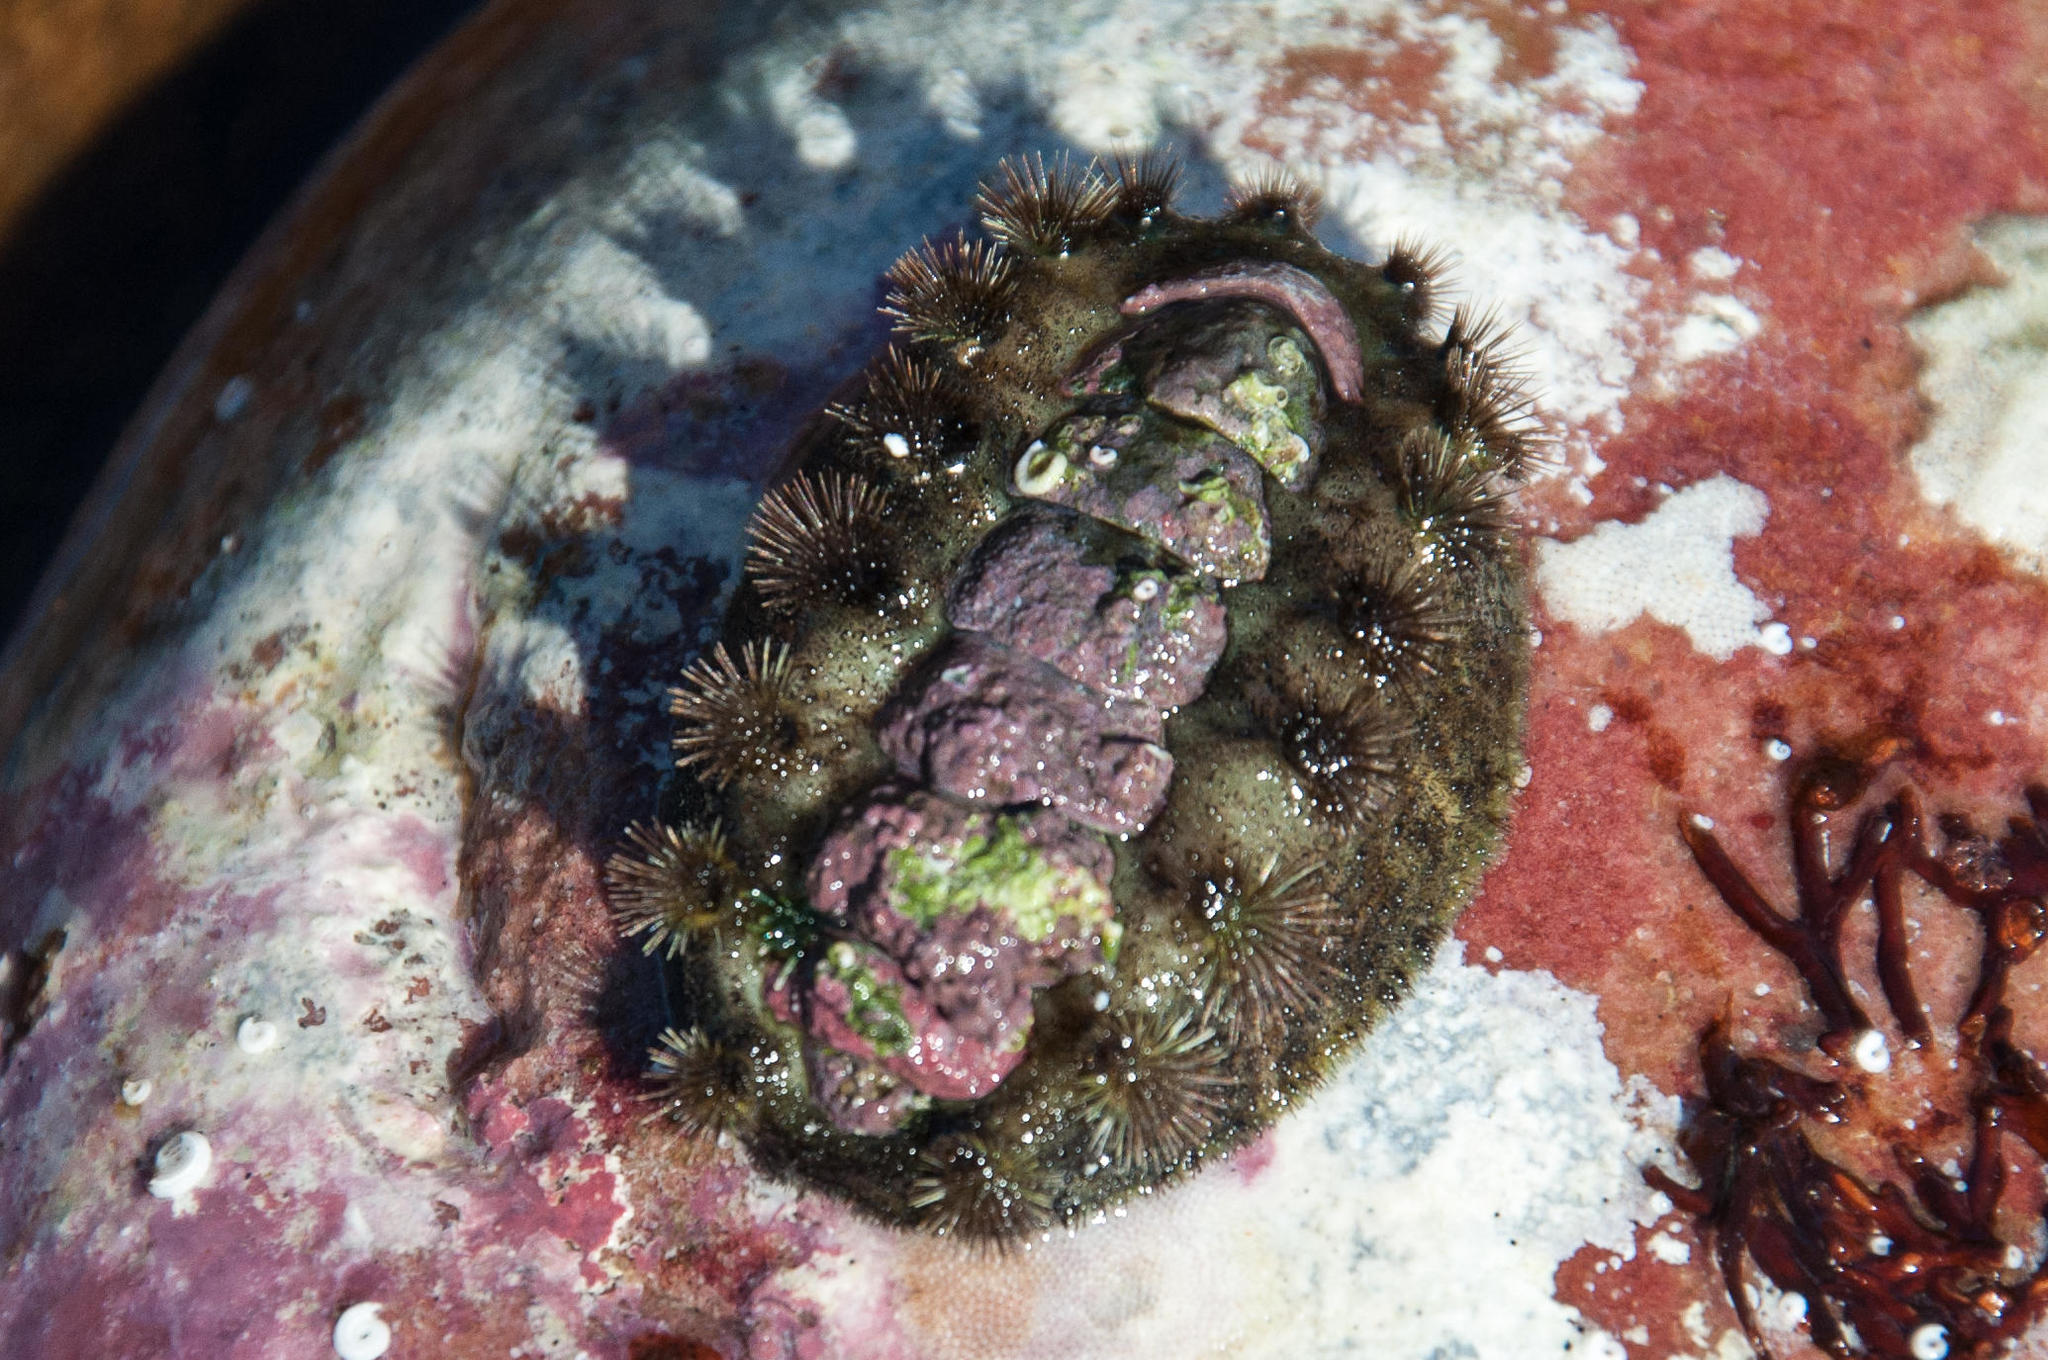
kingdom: Animalia
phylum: Mollusca
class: Polyplacophora
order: Chitonida
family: Acanthochitonidae
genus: Acanthochitona
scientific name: Acanthochitona garnoti
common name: Spiny chiton
